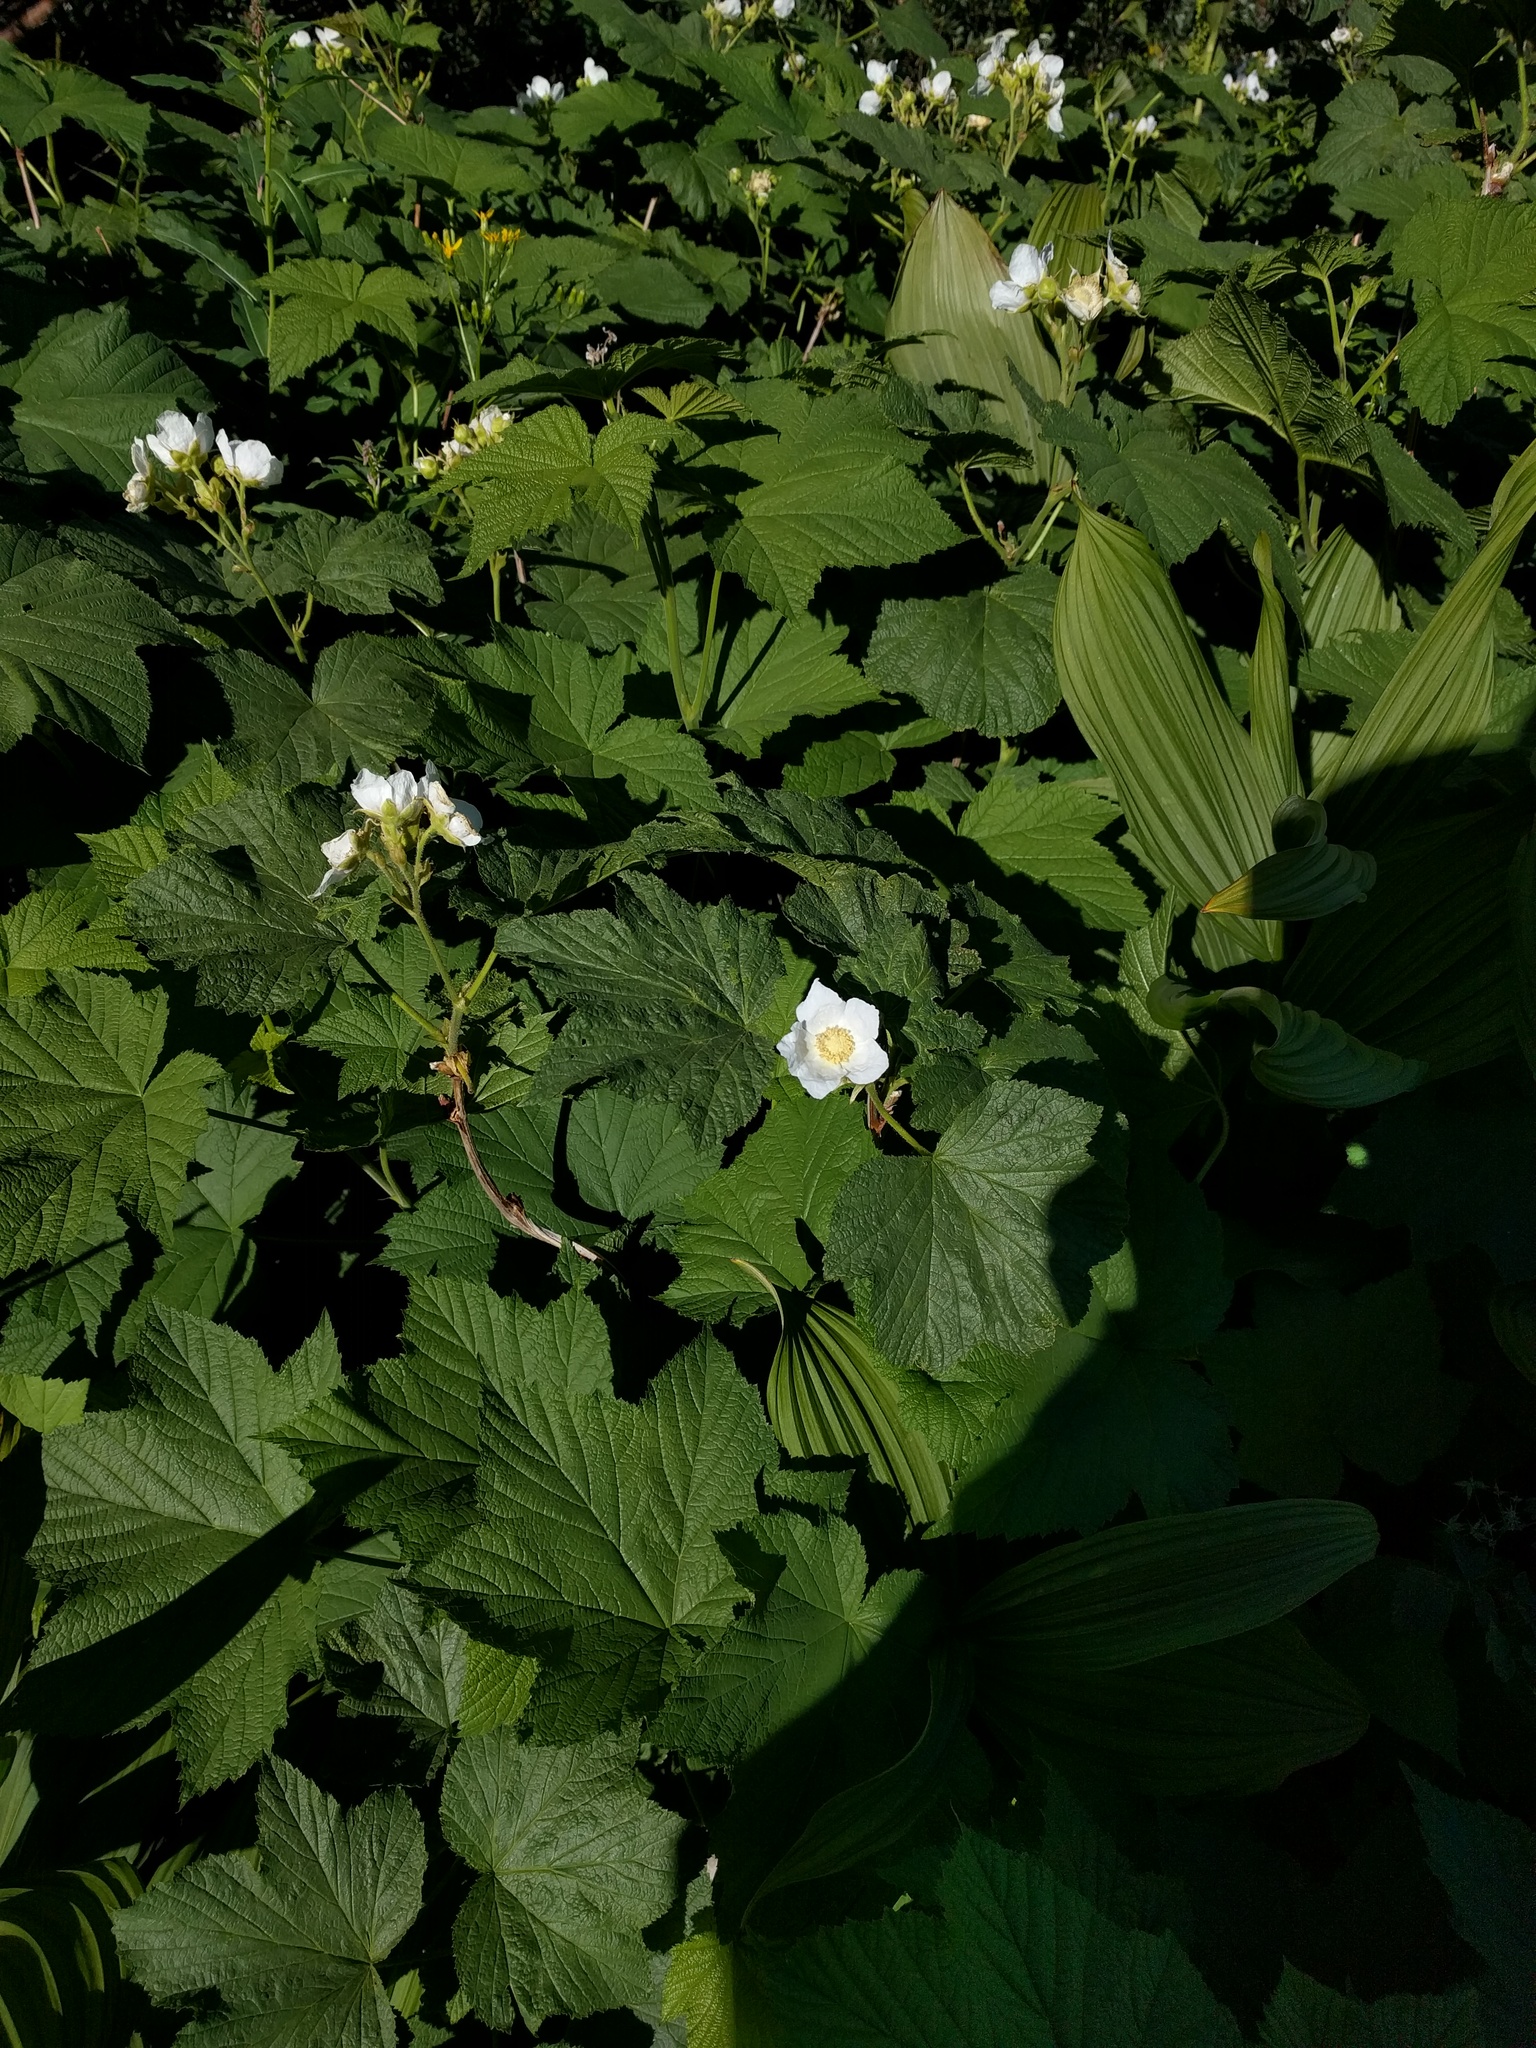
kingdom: Plantae
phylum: Tracheophyta
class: Magnoliopsida
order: Rosales
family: Rosaceae
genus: Rubus
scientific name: Rubus parviflorus
